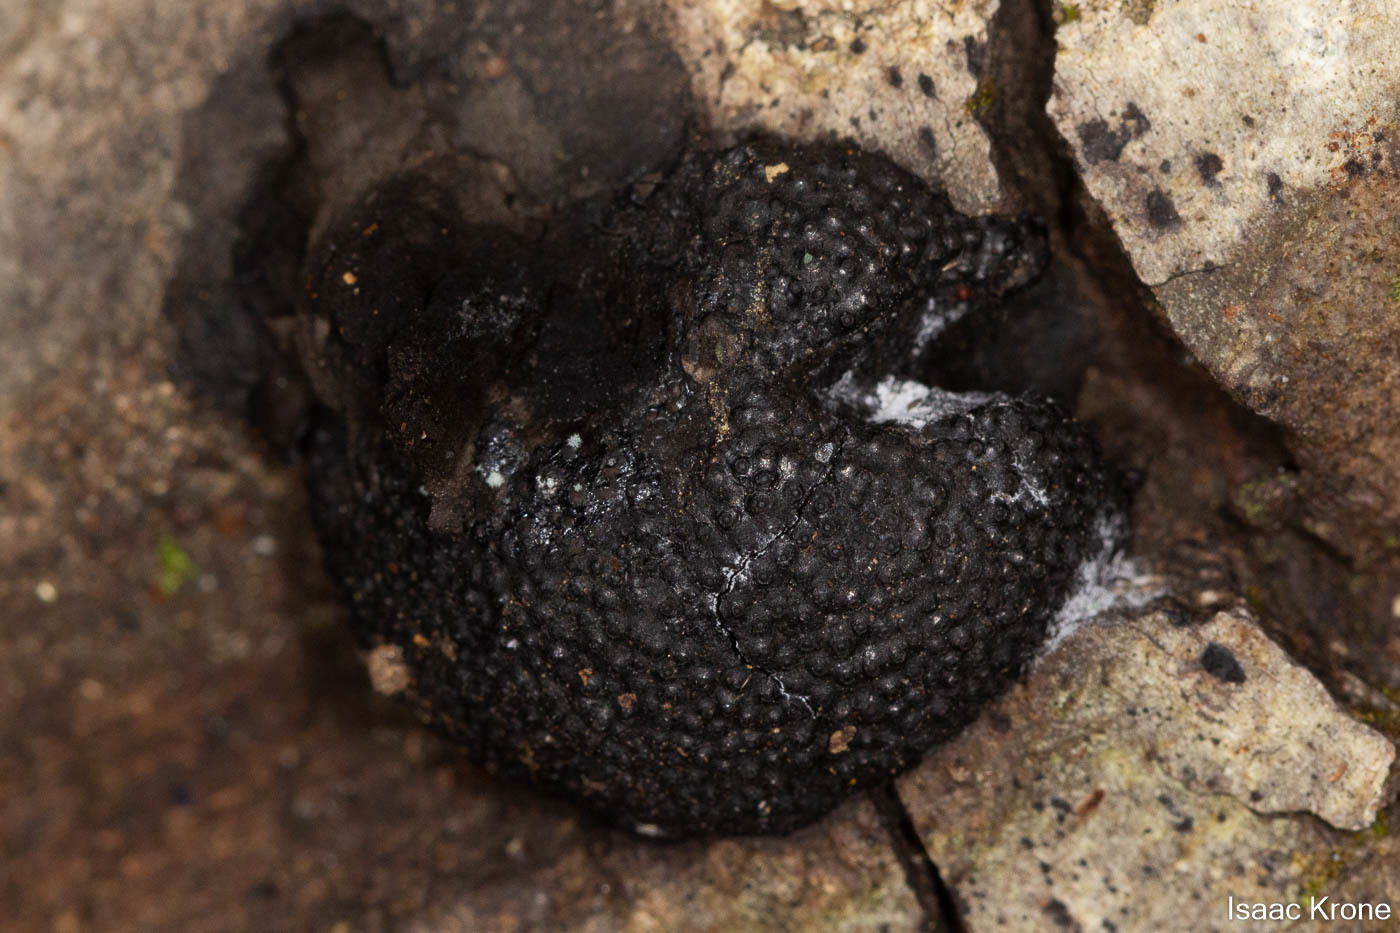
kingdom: Fungi
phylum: Ascomycota
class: Sordariomycetes
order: Xylariales
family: Hypoxylaceae
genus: Annulohypoxylon
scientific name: Annulohypoxylon thouarsianum
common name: Cramp balls
